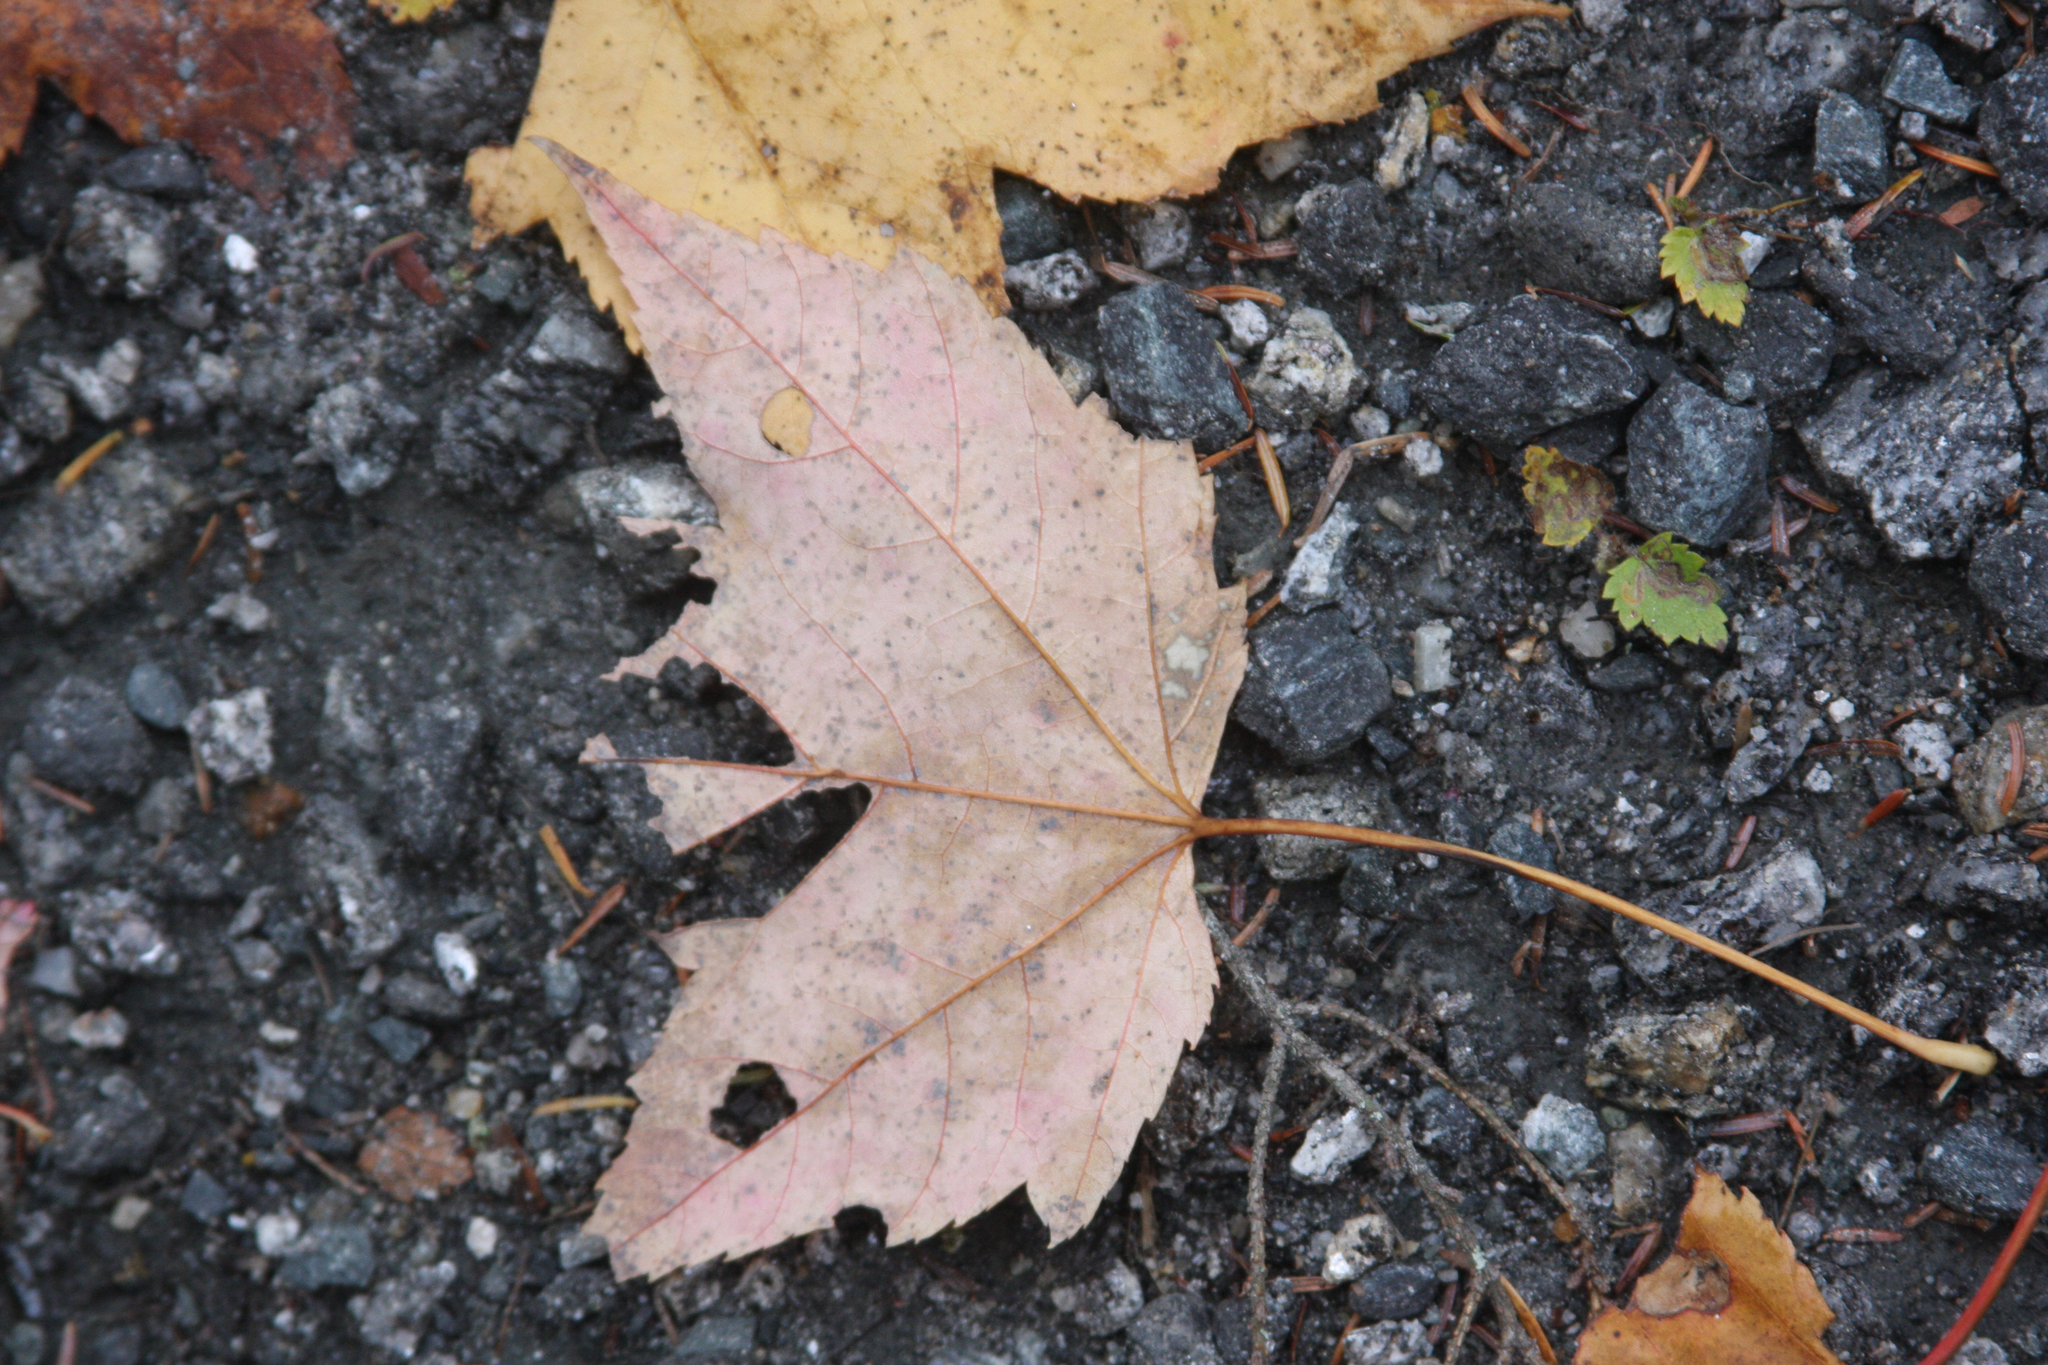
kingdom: Plantae
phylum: Tracheophyta
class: Magnoliopsida
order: Sapindales
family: Sapindaceae
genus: Acer
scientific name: Acer rubrum
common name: Red maple
